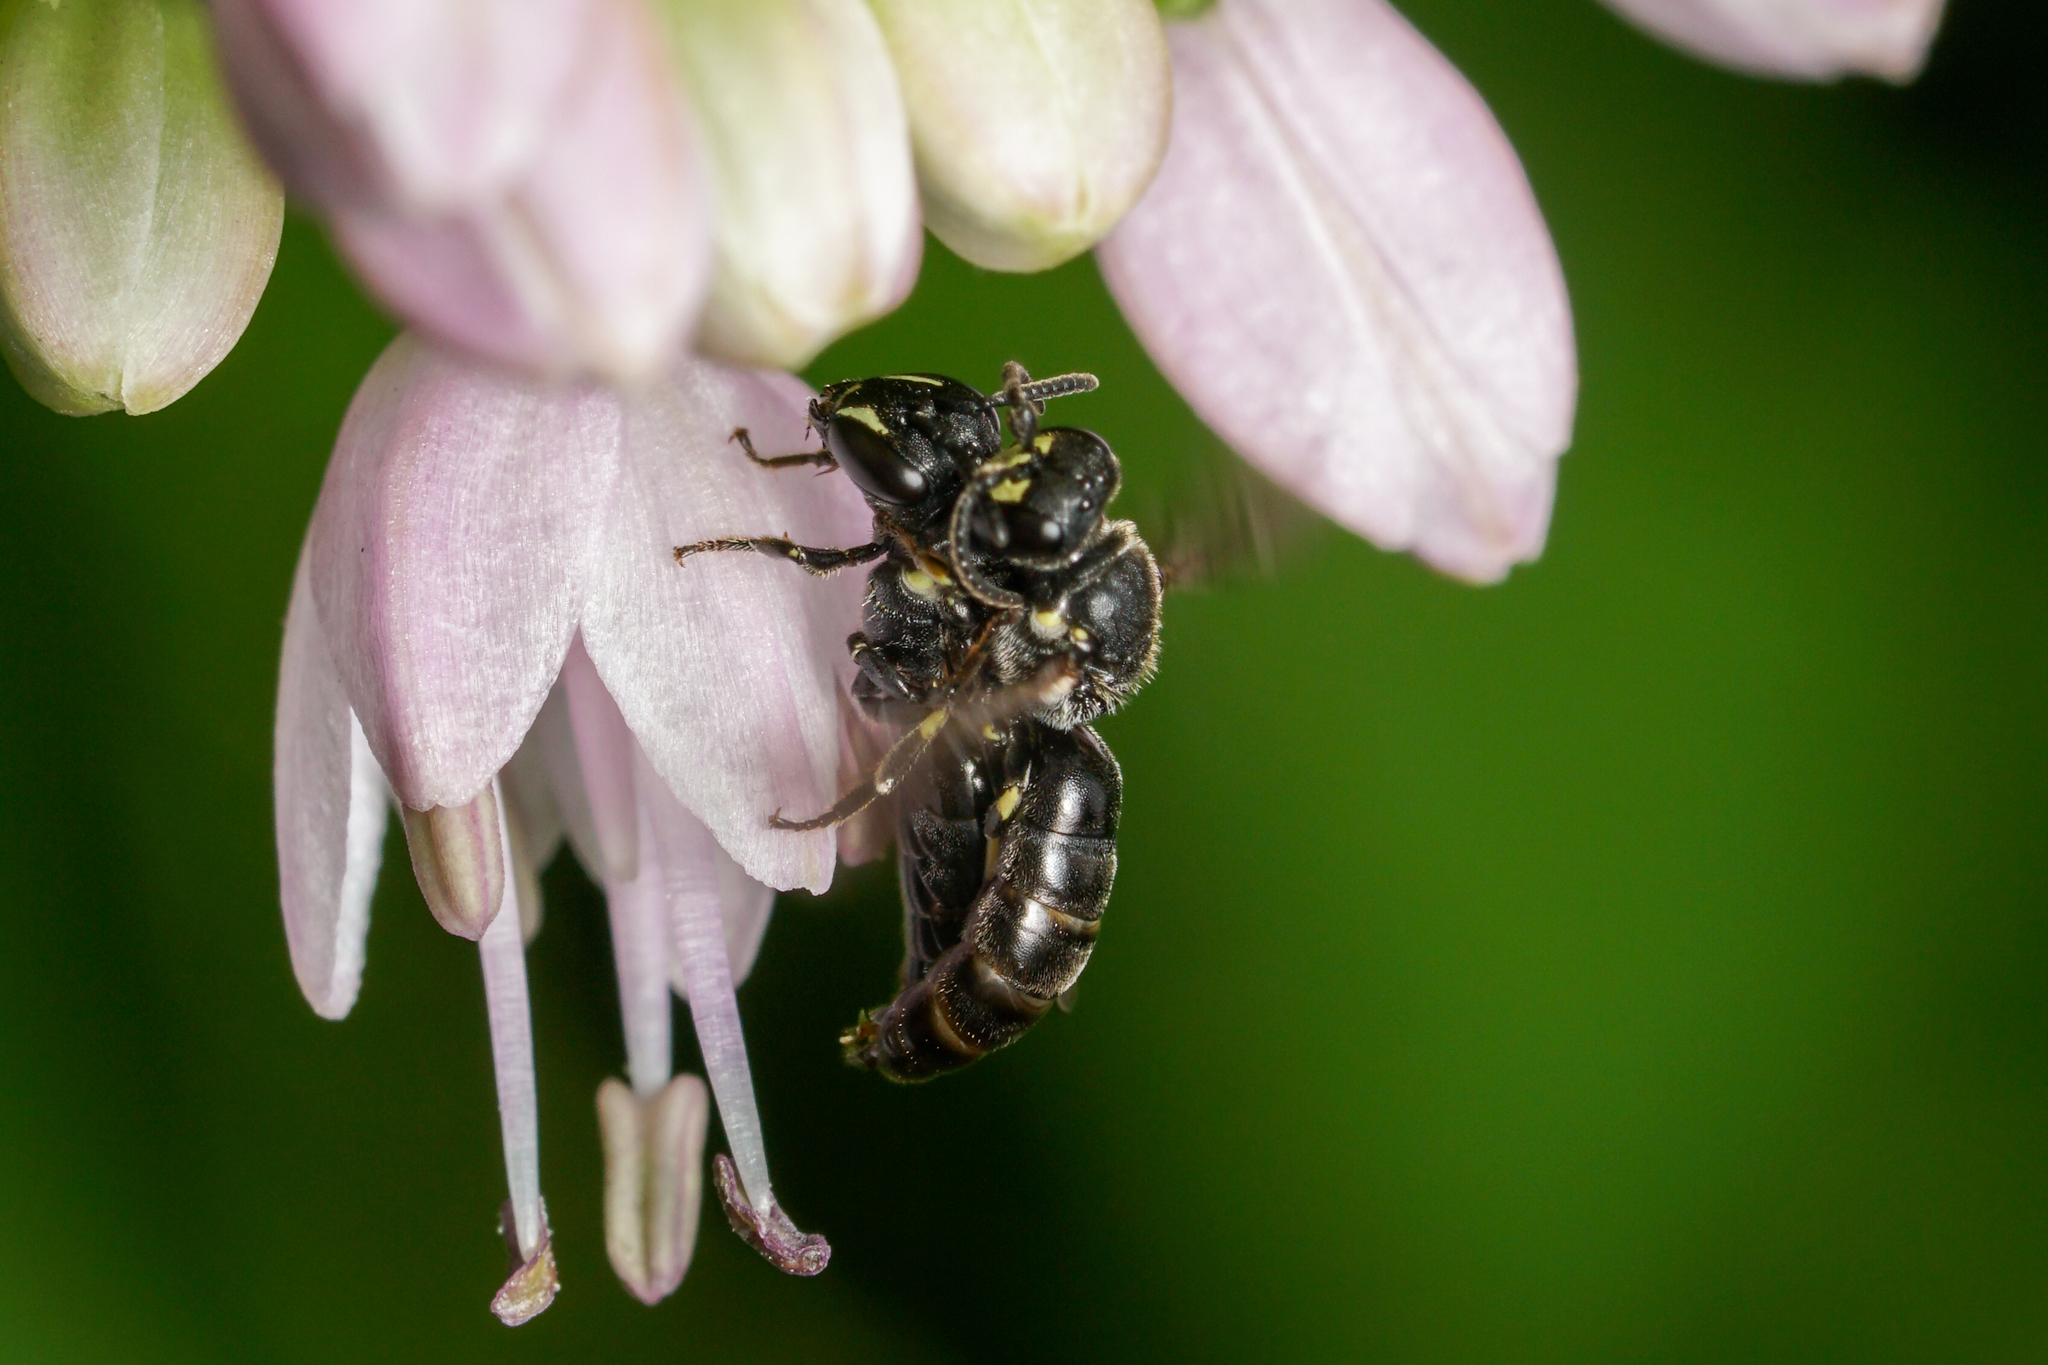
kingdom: Animalia
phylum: Arthropoda
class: Insecta
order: Hymenoptera
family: Colletidae
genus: Hylaeus
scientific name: Hylaeus annulatus
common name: Annulate masked bee
